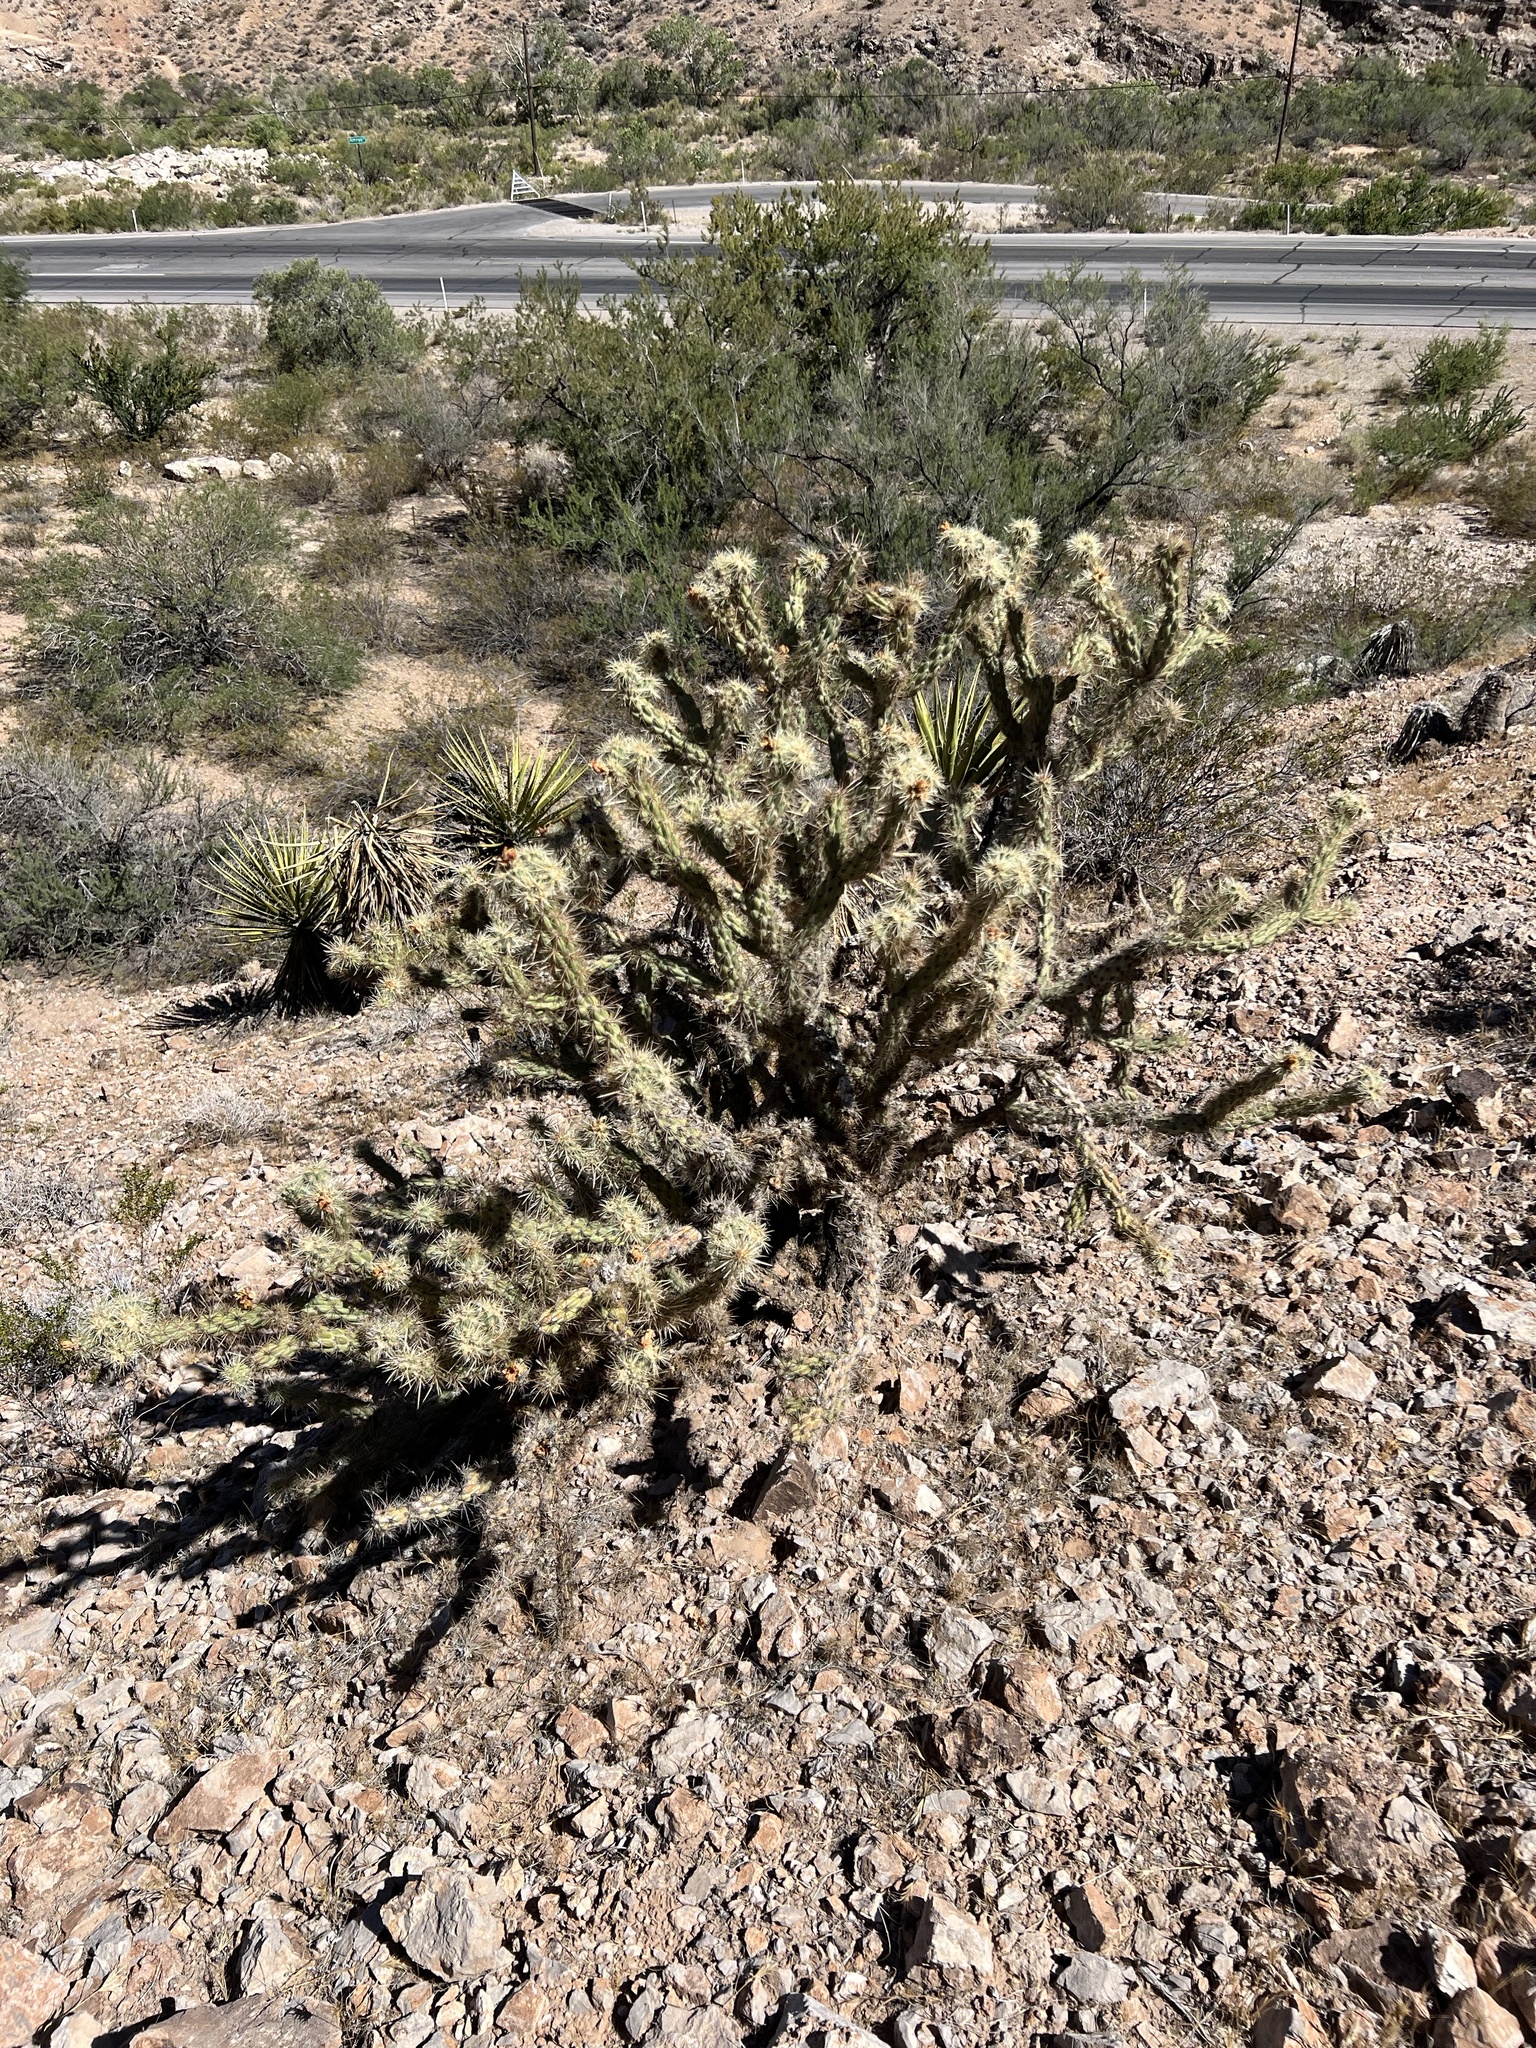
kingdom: Plantae
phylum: Tracheophyta
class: Magnoliopsida
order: Caryophyllales
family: Cactaceae
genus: Cylindropuntia
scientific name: Cylindropuntia acanthocarpa
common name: Buckhorn cholla
